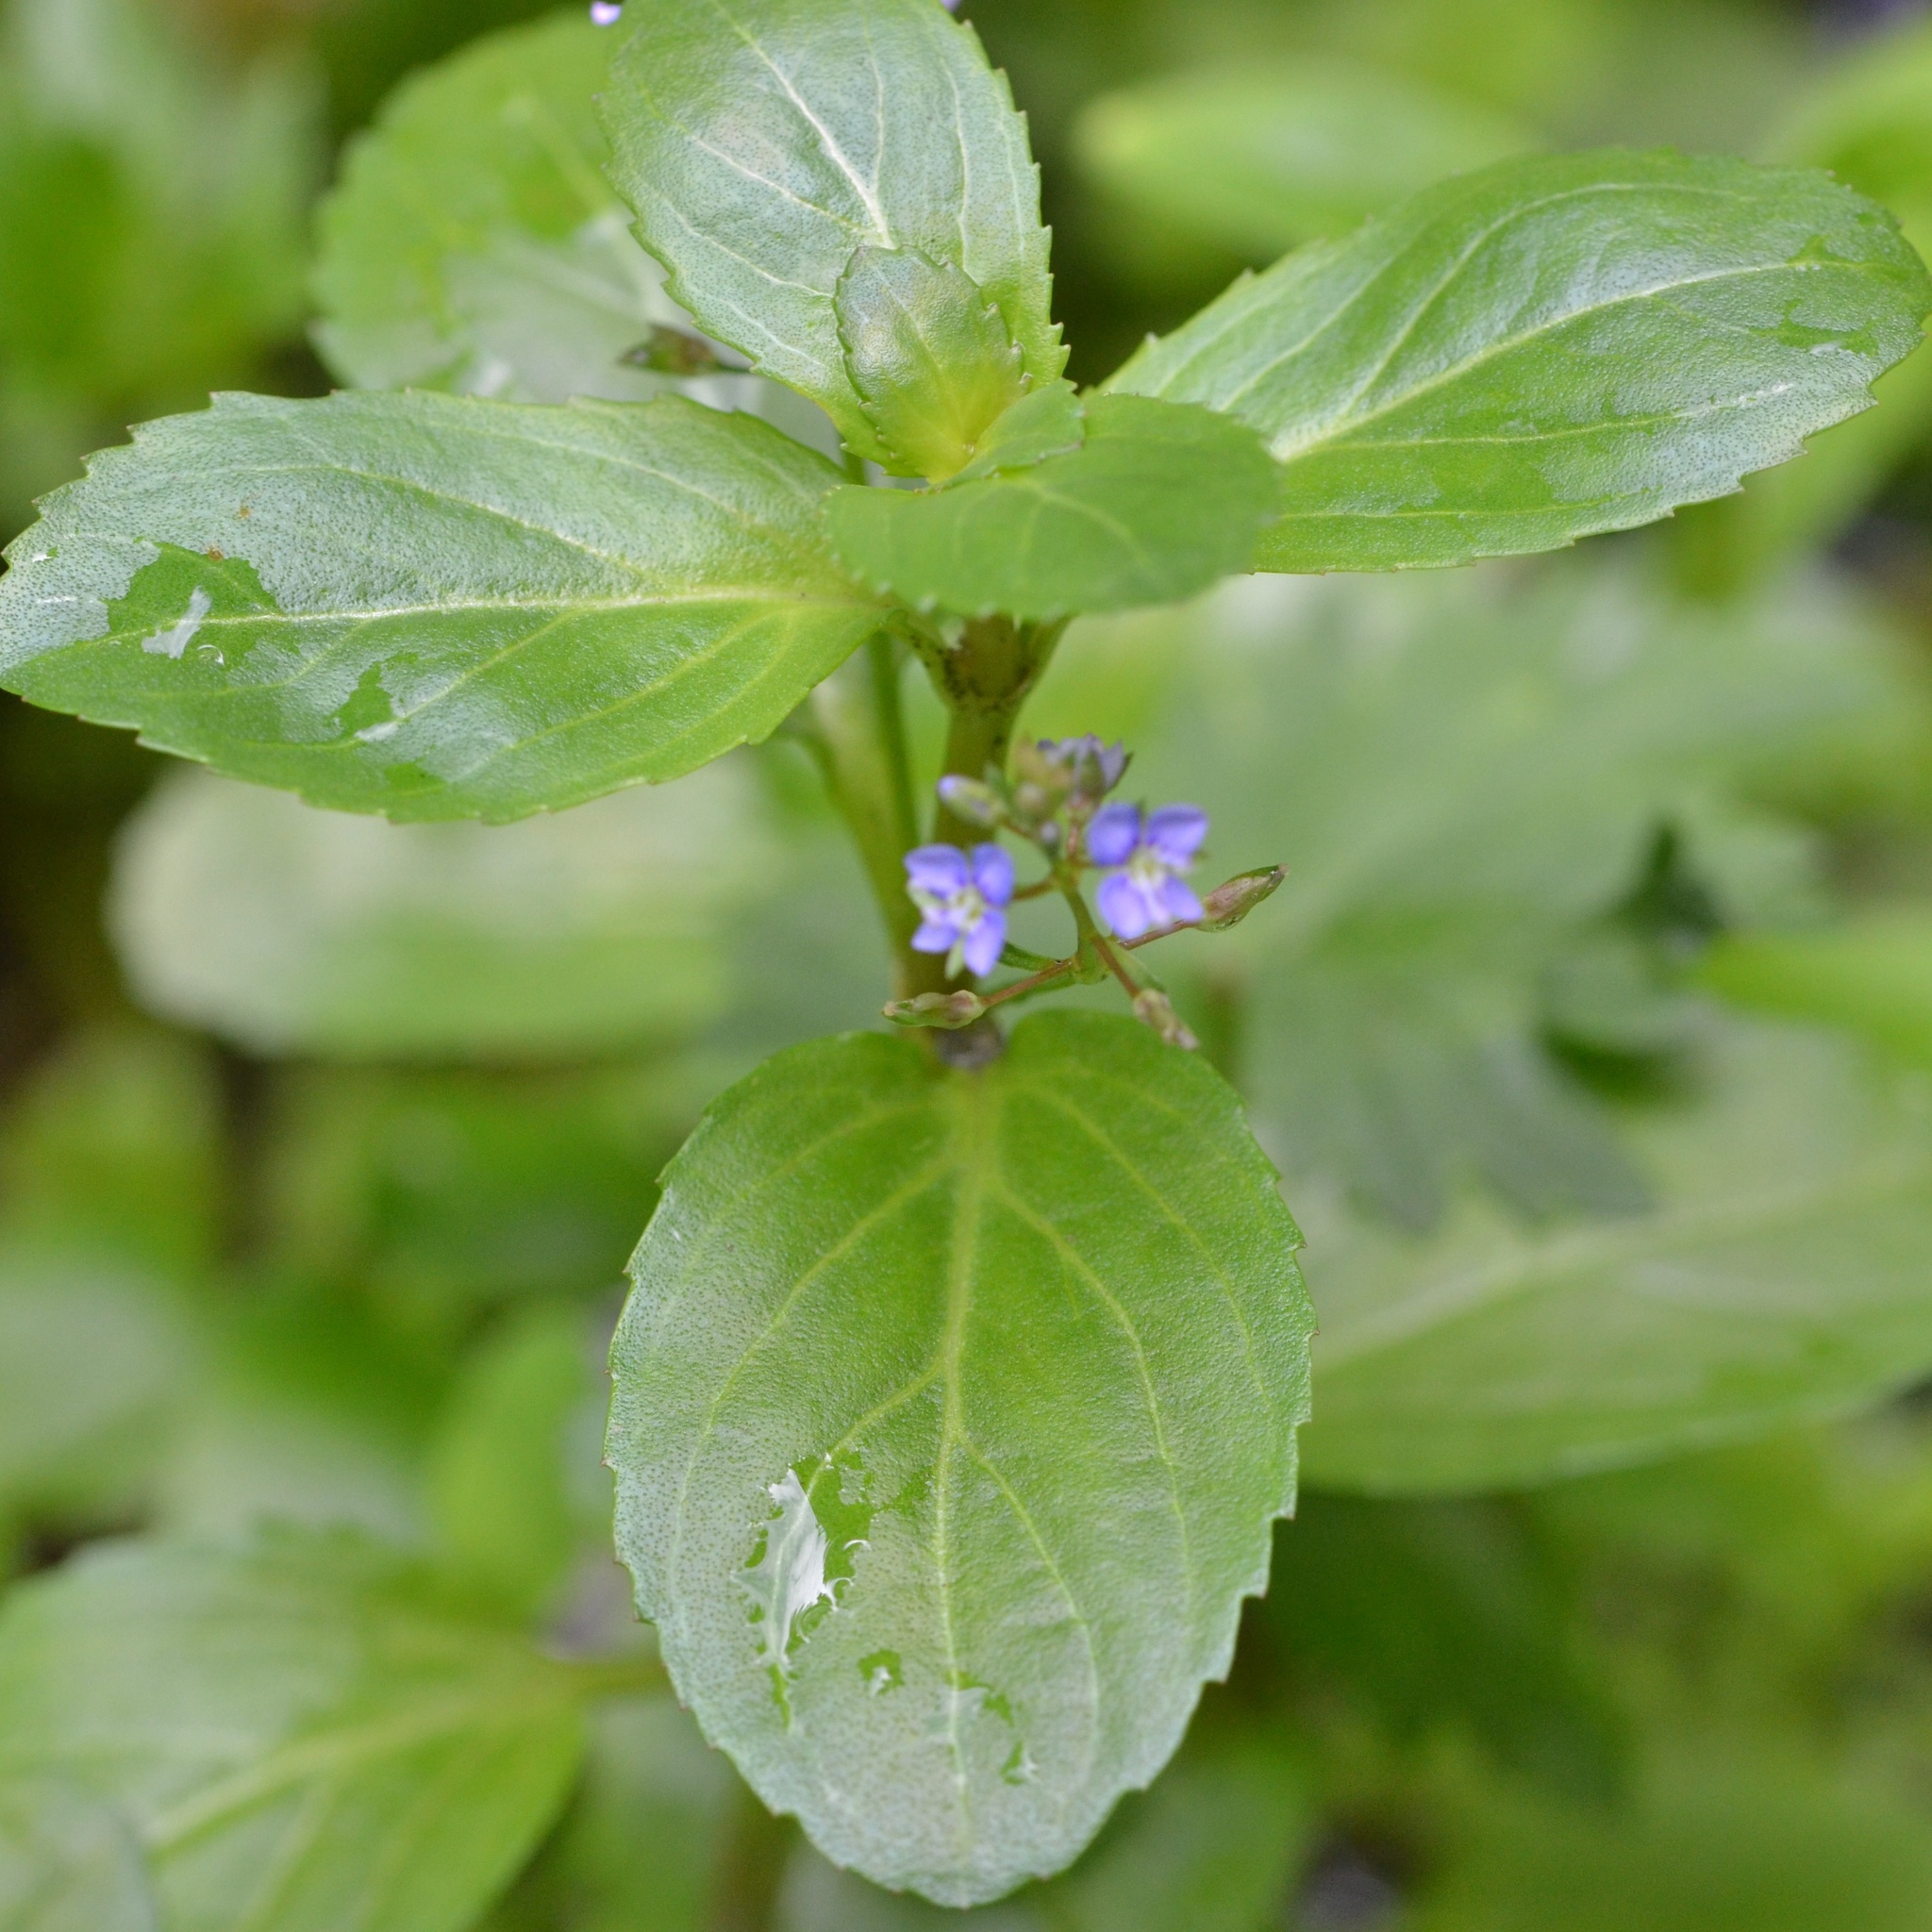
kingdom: Plantae
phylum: Tracheophyta
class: Magnoliopsida
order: Lamiales
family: Plantaginaceae
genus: Veronica
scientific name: Veronica beccabunga
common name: Brooklime
